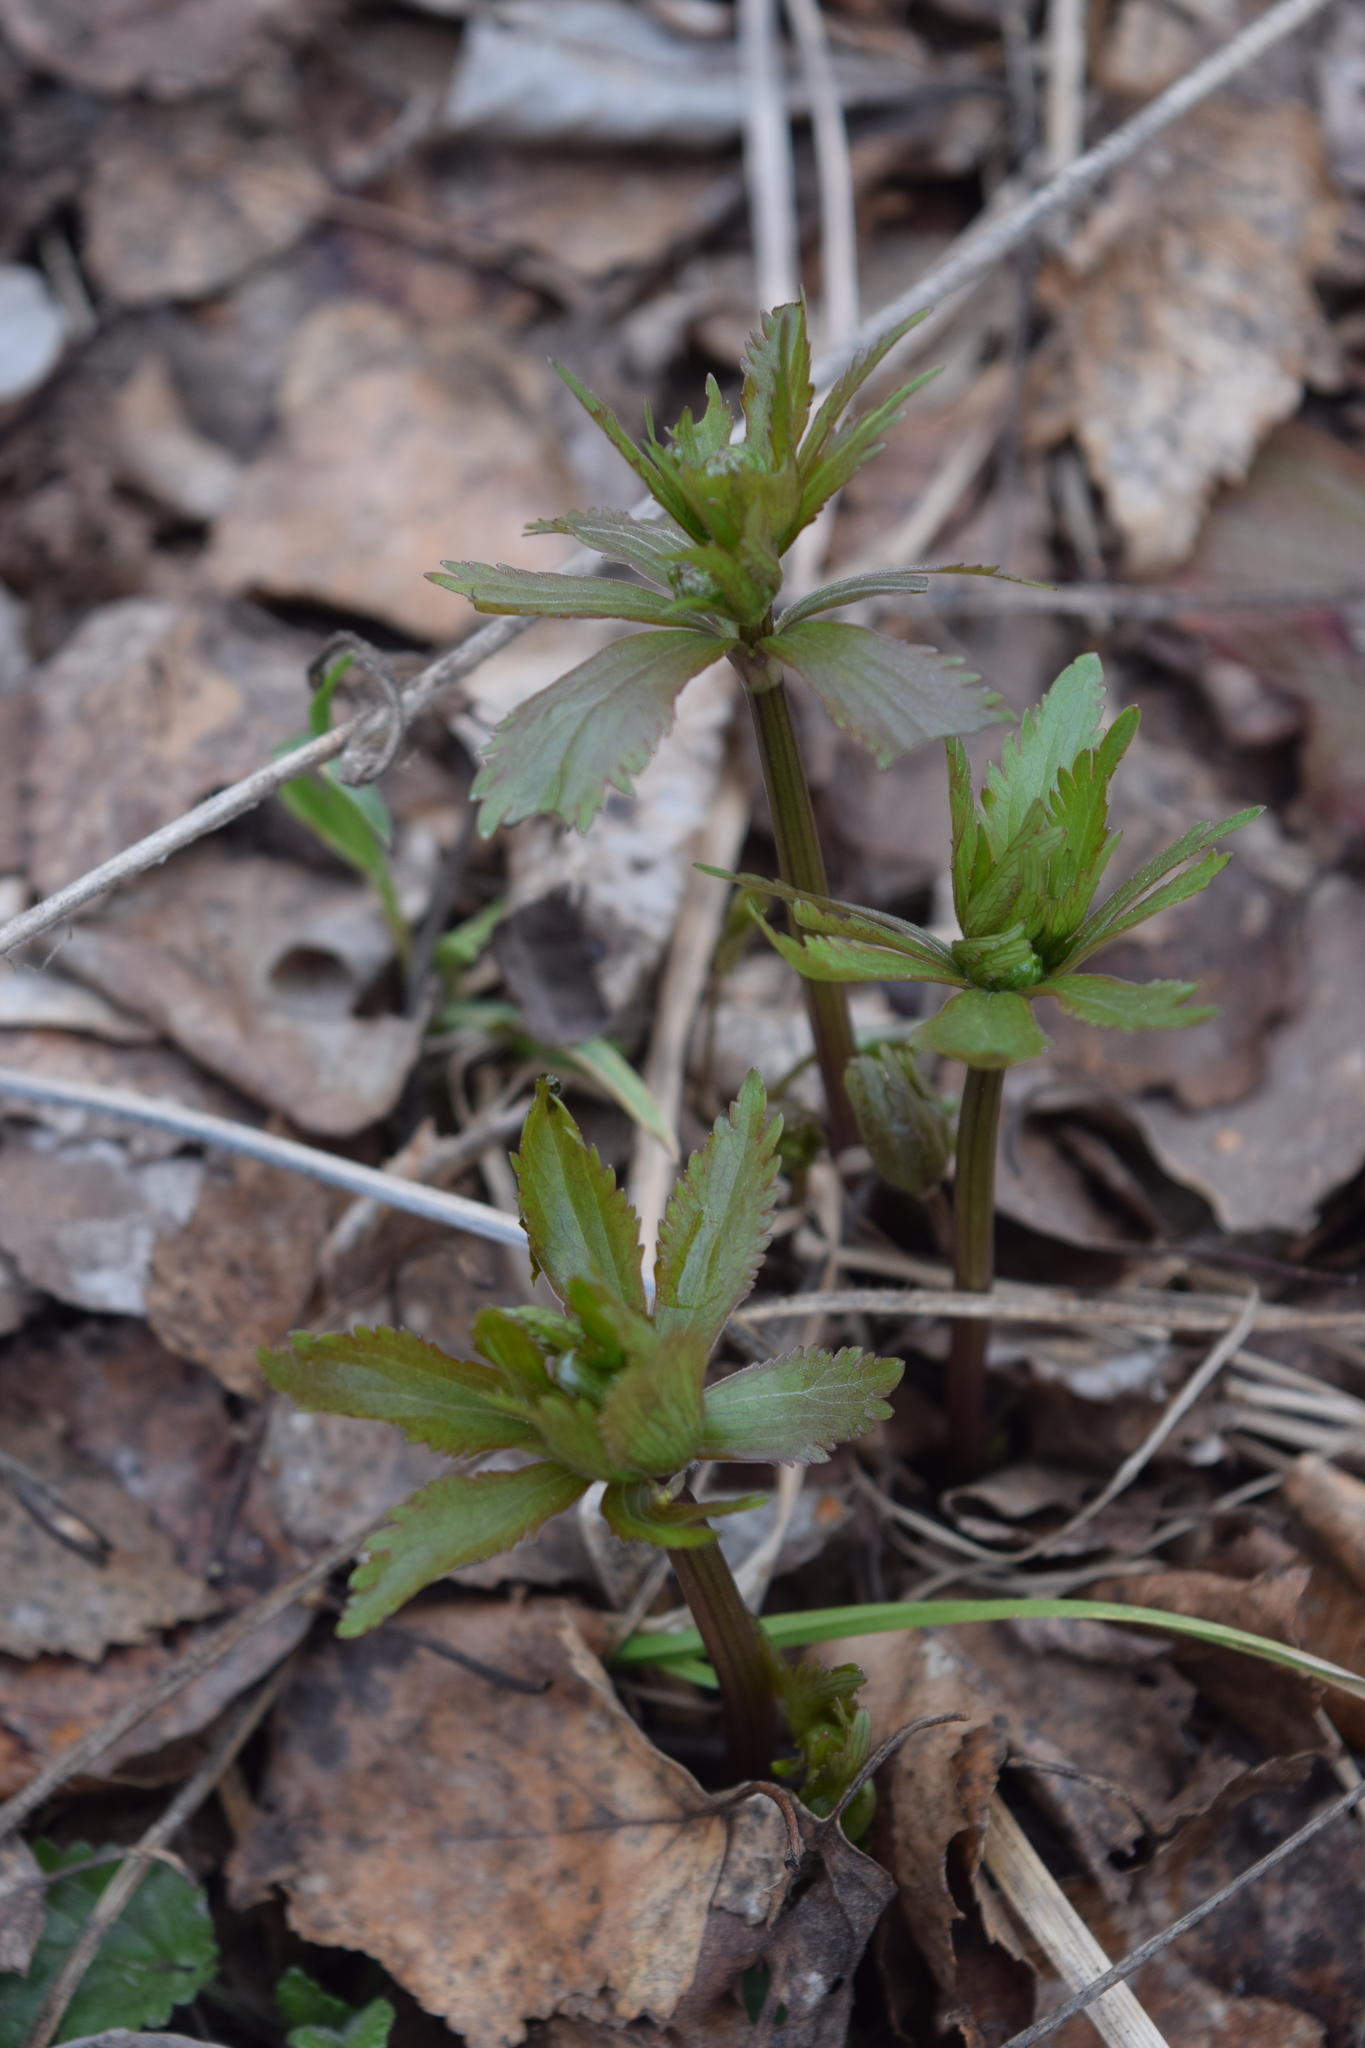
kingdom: Plantae
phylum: Tracheophyta
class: Magnoliopsida
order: Ranunculales
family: Ranunculaceae
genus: Ranunculus
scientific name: Ranunculus cassubicus
